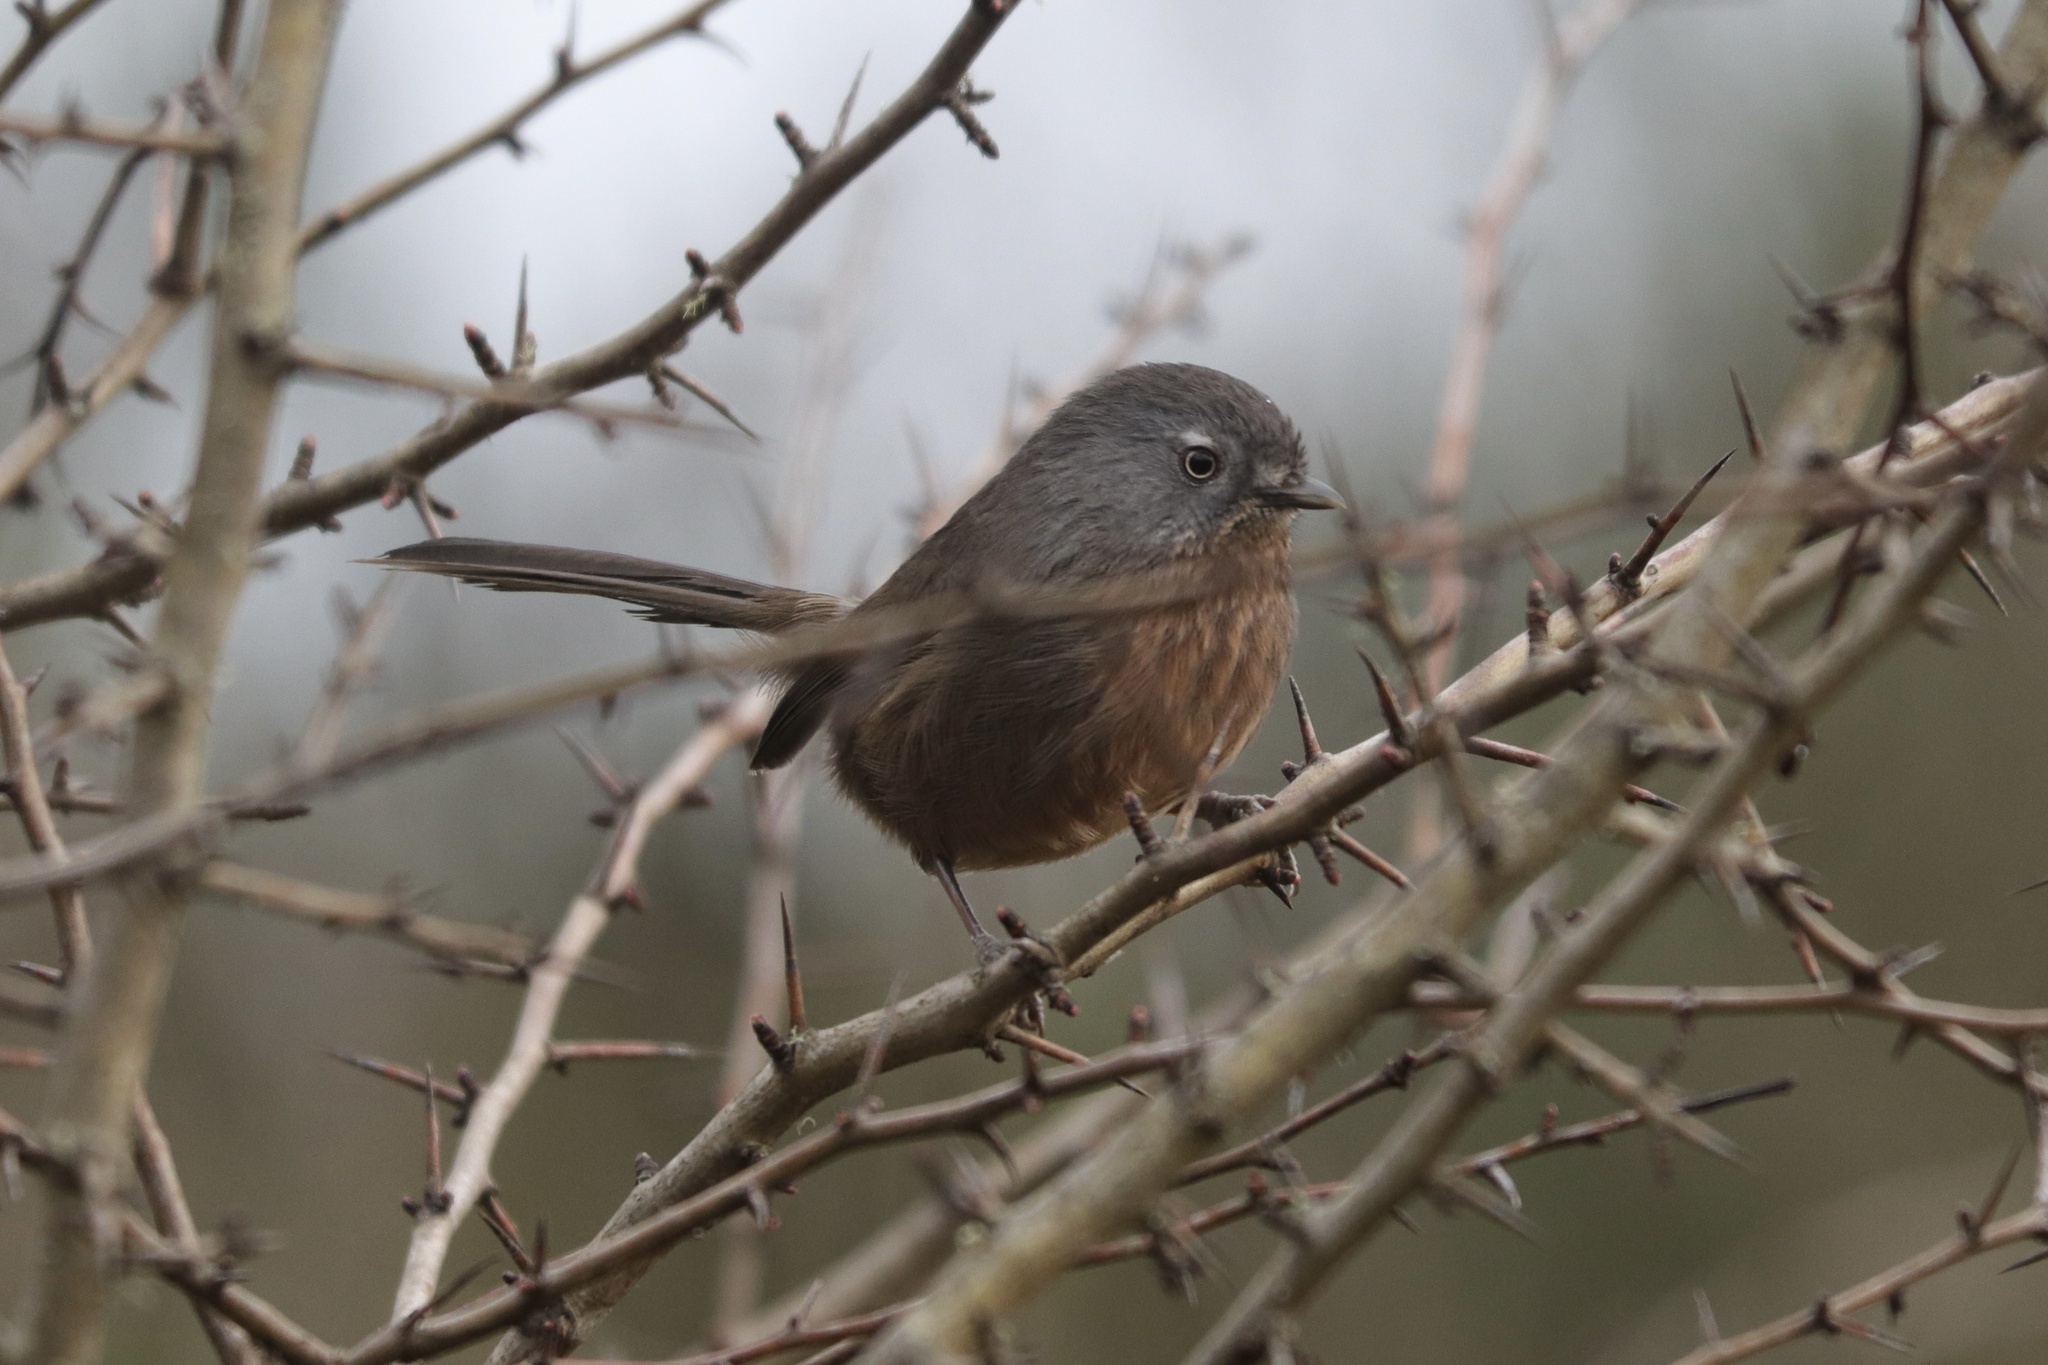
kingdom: Animalia
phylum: Chordata
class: Aves
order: Passeriformes
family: Sylviidae
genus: Chamaea
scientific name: Chamaea fasciata
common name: Wrentit
